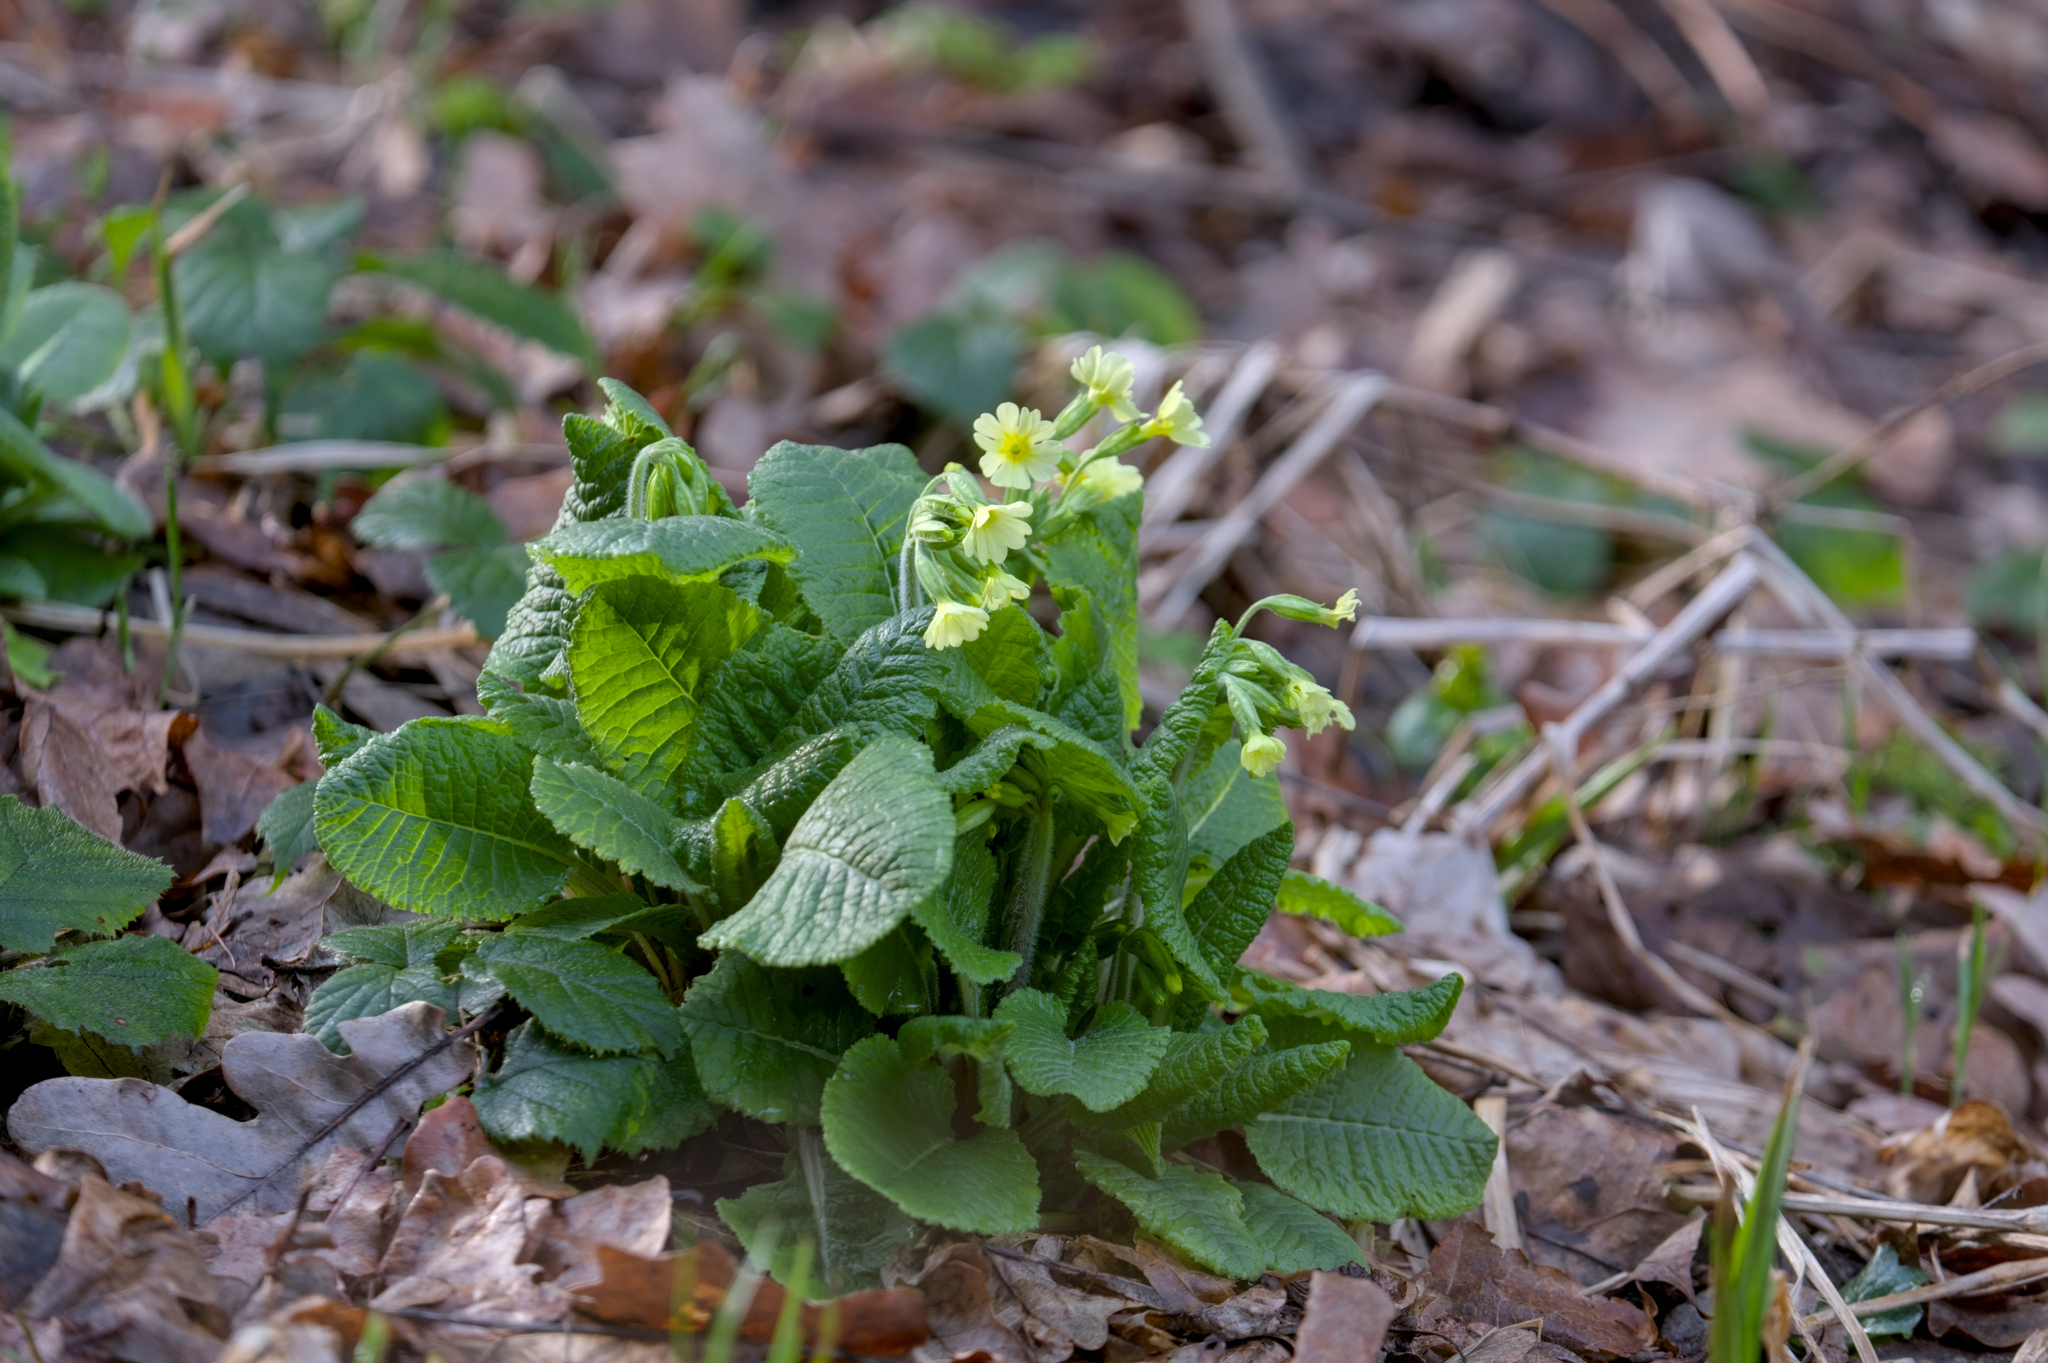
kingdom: Plantae
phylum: Tracheophyta
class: Magnoliopsida
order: Ericales
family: Primulaceae
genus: Primula
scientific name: Primula elatior
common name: Oxlip
